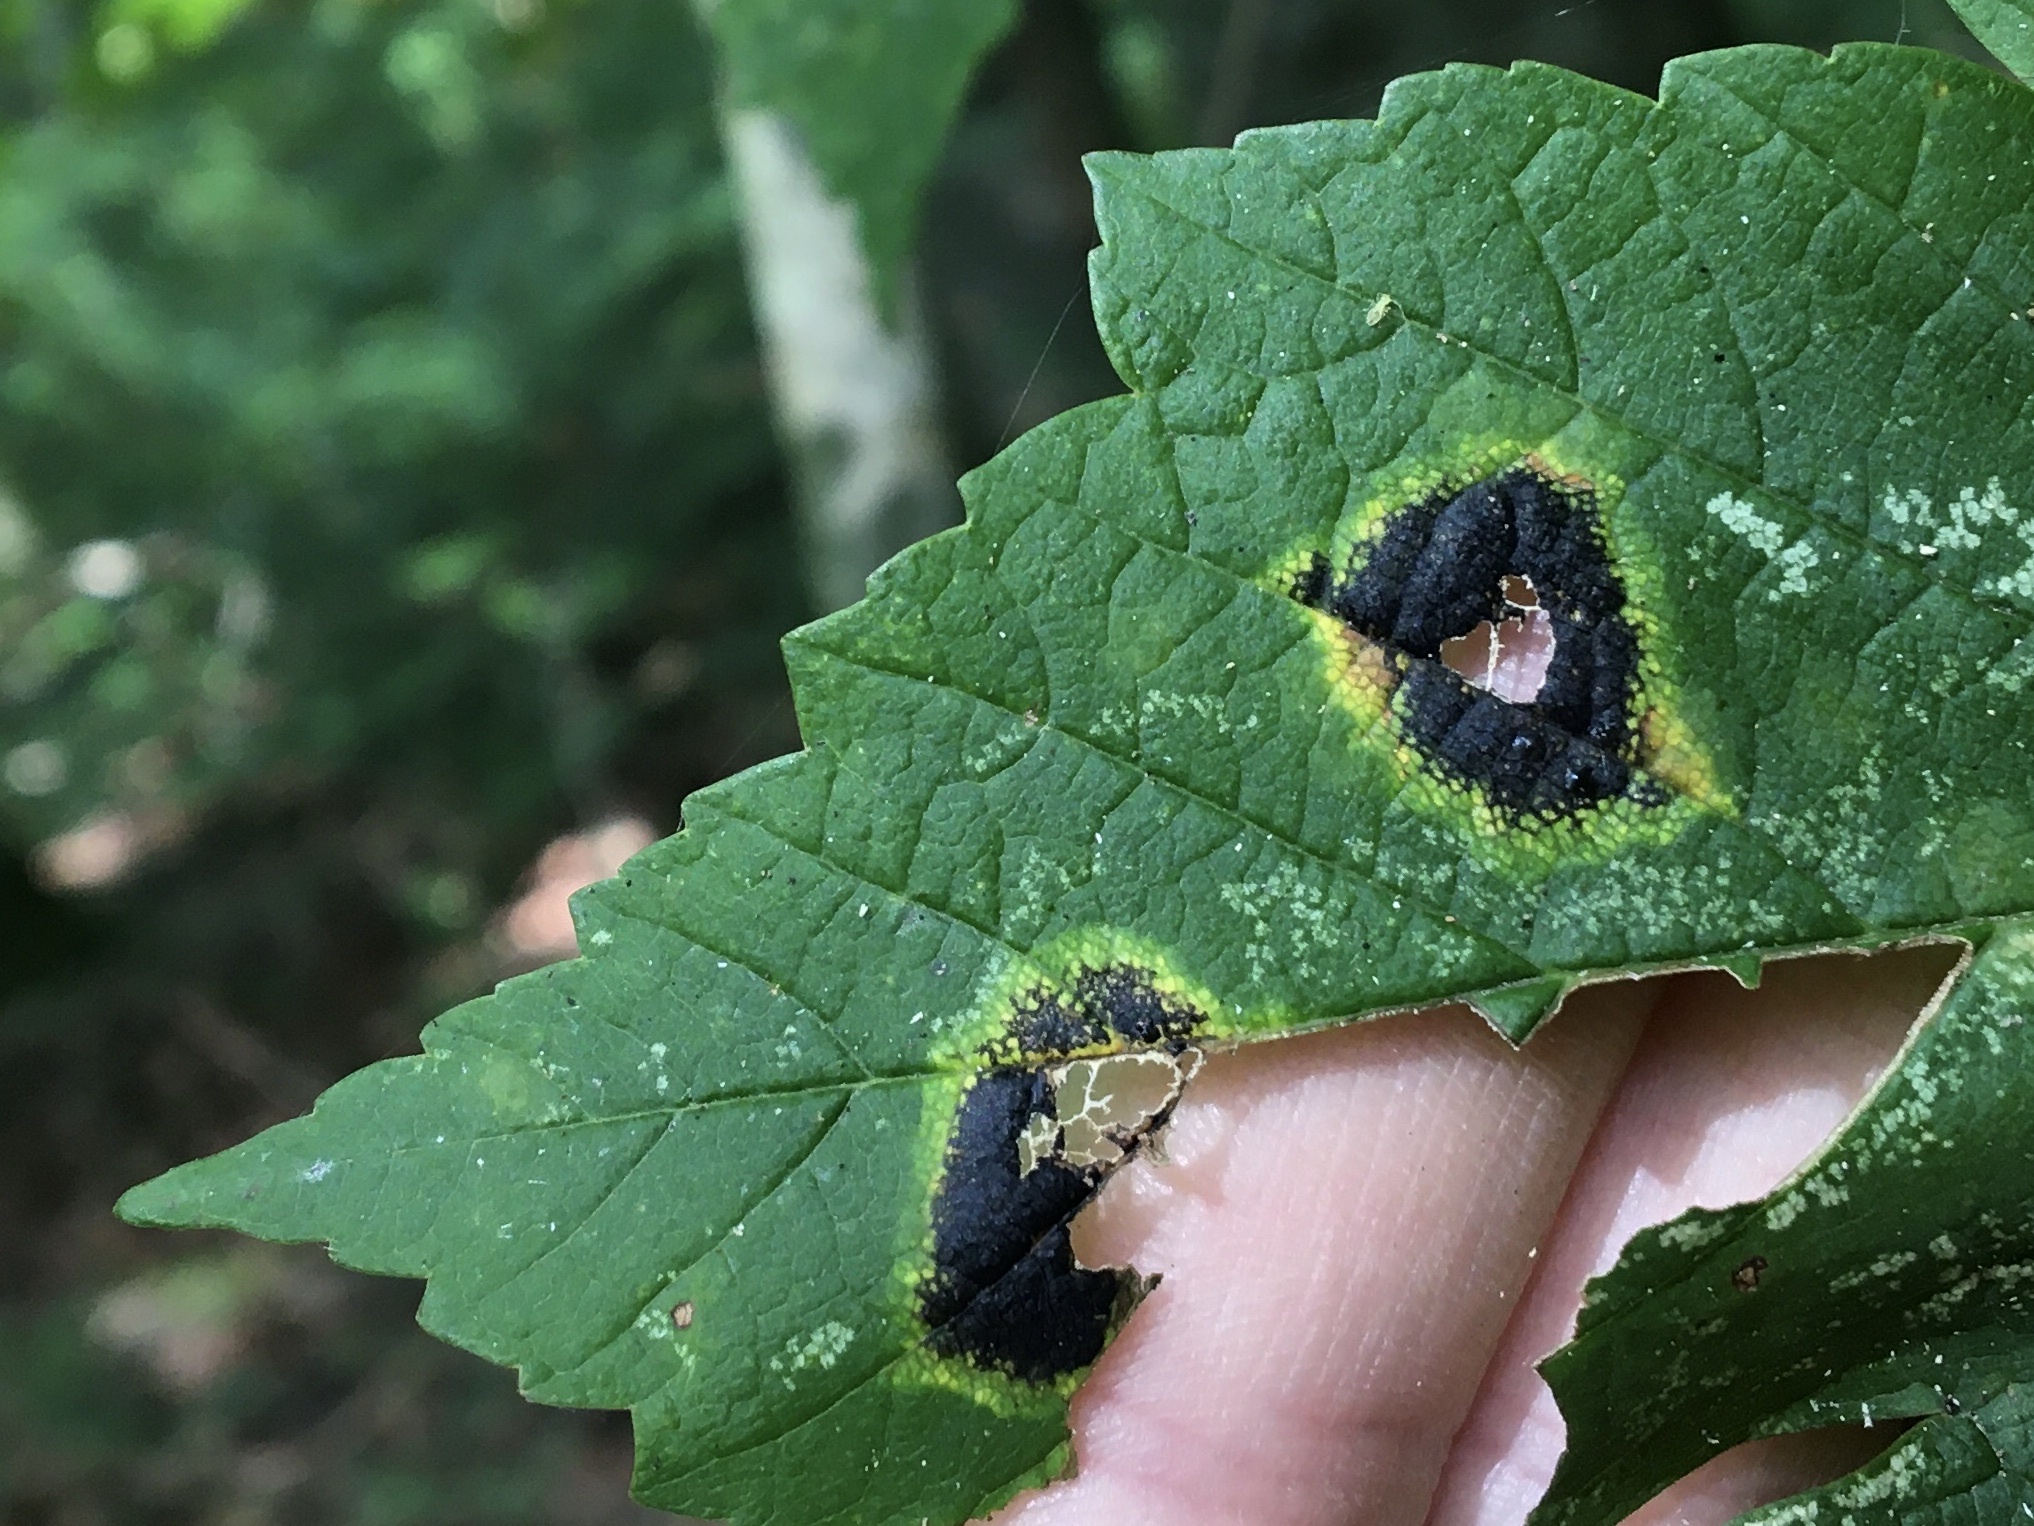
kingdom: Fungi
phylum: Ascomycota
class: Leotiomycetes
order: Rhytismatales
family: Rhytismataceae
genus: Rhytisma
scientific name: Rhytisma acerinum
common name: European tar spot
